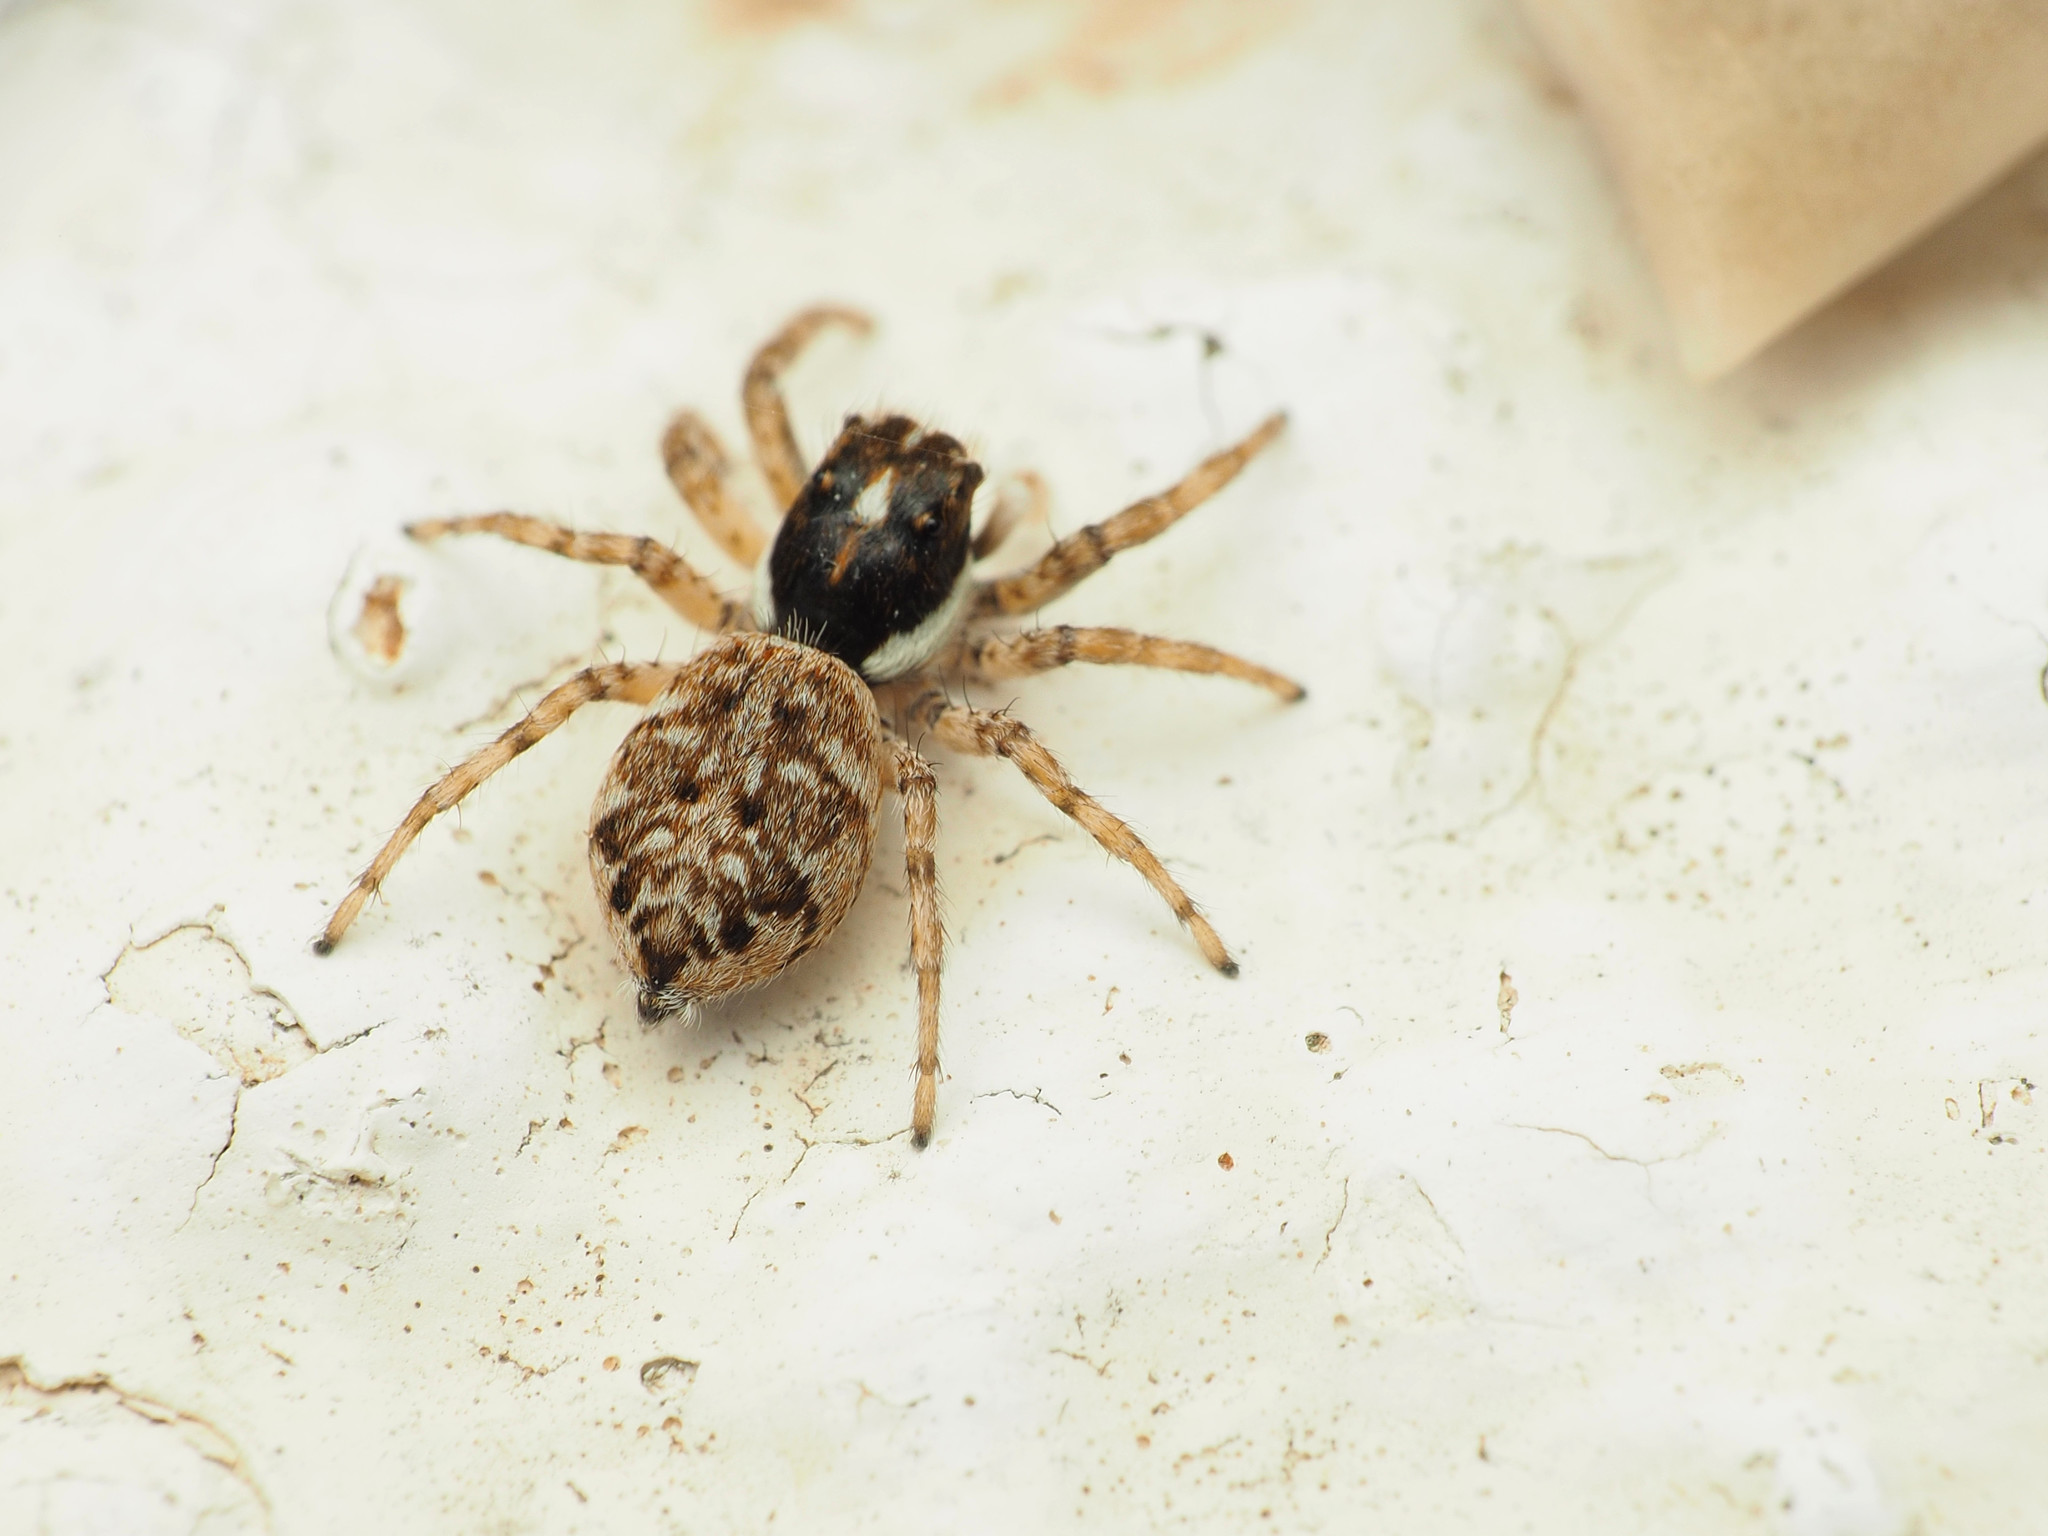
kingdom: Animalia
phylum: Arthropoda
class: Arachnida
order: Araneae
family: Salticidae
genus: Menemerus
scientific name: Menemerus semilimbatus
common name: Jumping spider
